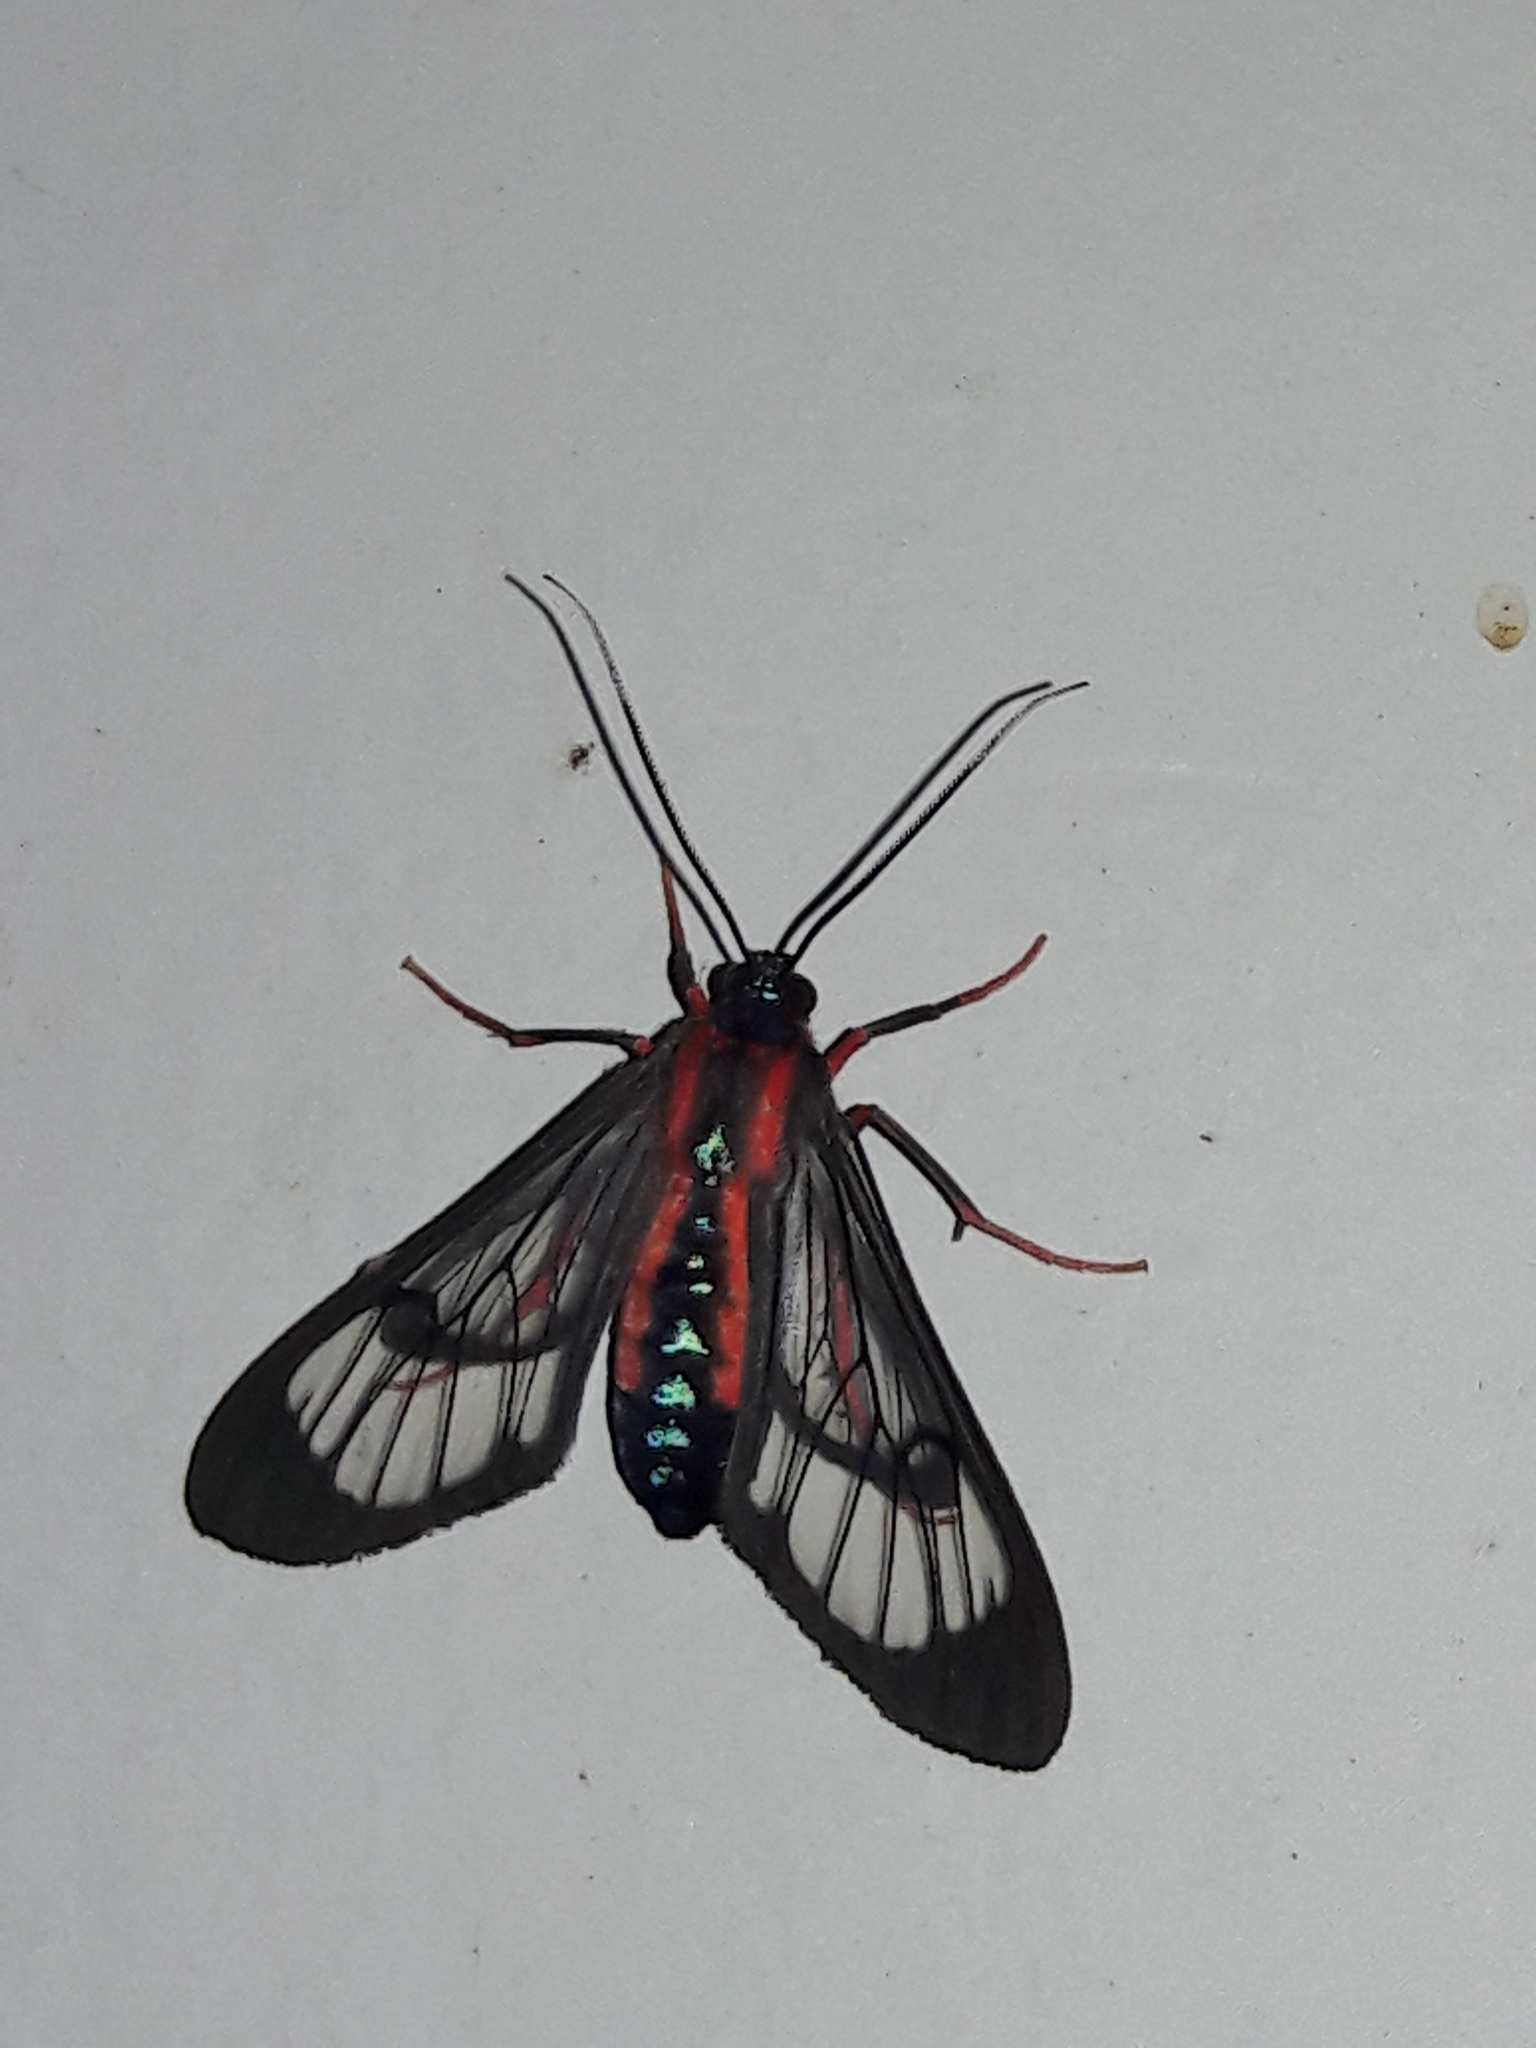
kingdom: Animalia
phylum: Arthropoda
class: Insecta
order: Lepidoptera
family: Erebidae
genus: Cosmosoma
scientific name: Cosmosoma auge
